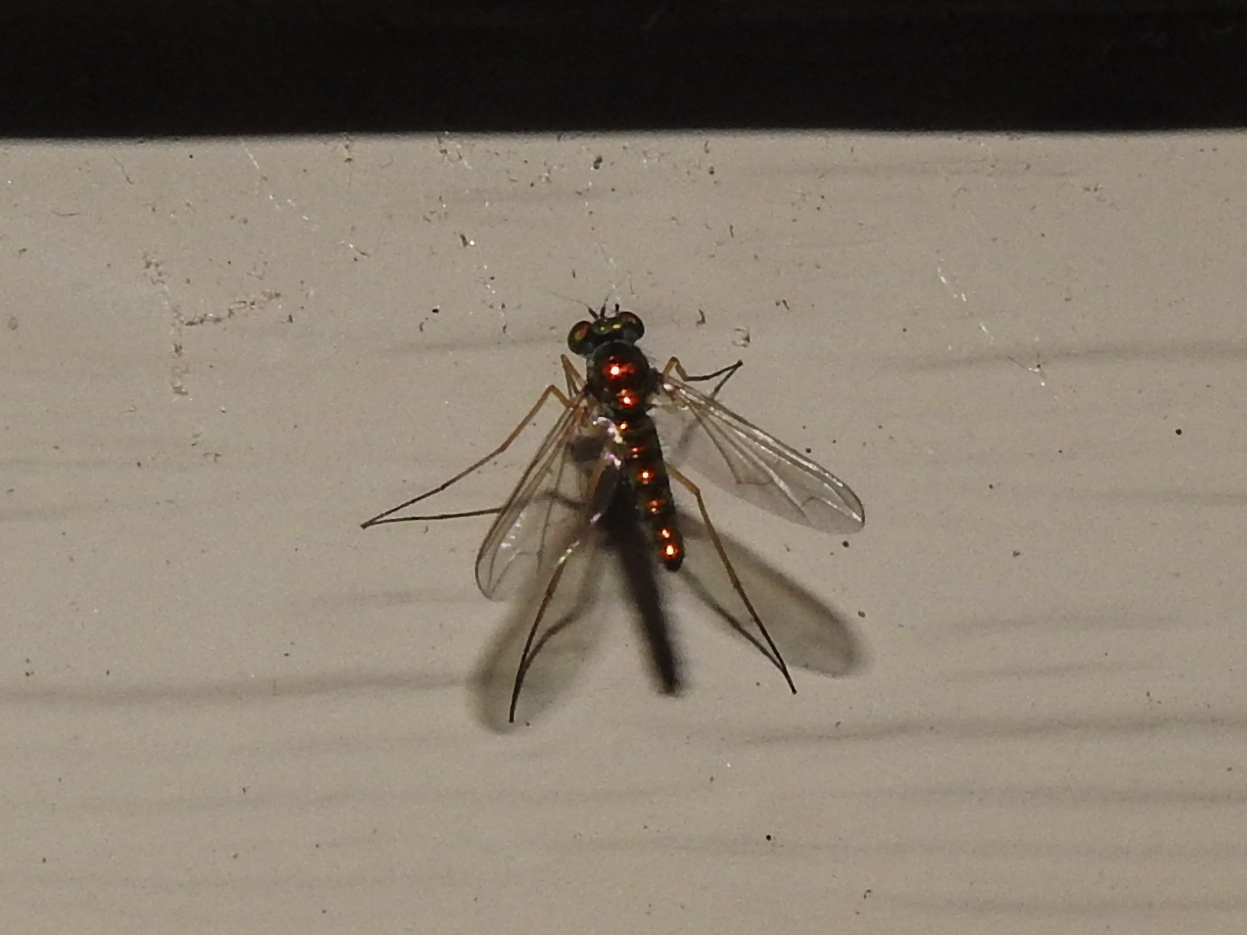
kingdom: Animalia
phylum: Arthropoda
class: Insecta
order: Diptera
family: Dolichopodidae
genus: Amblypsilopus
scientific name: Amblypsilopus scintillans
